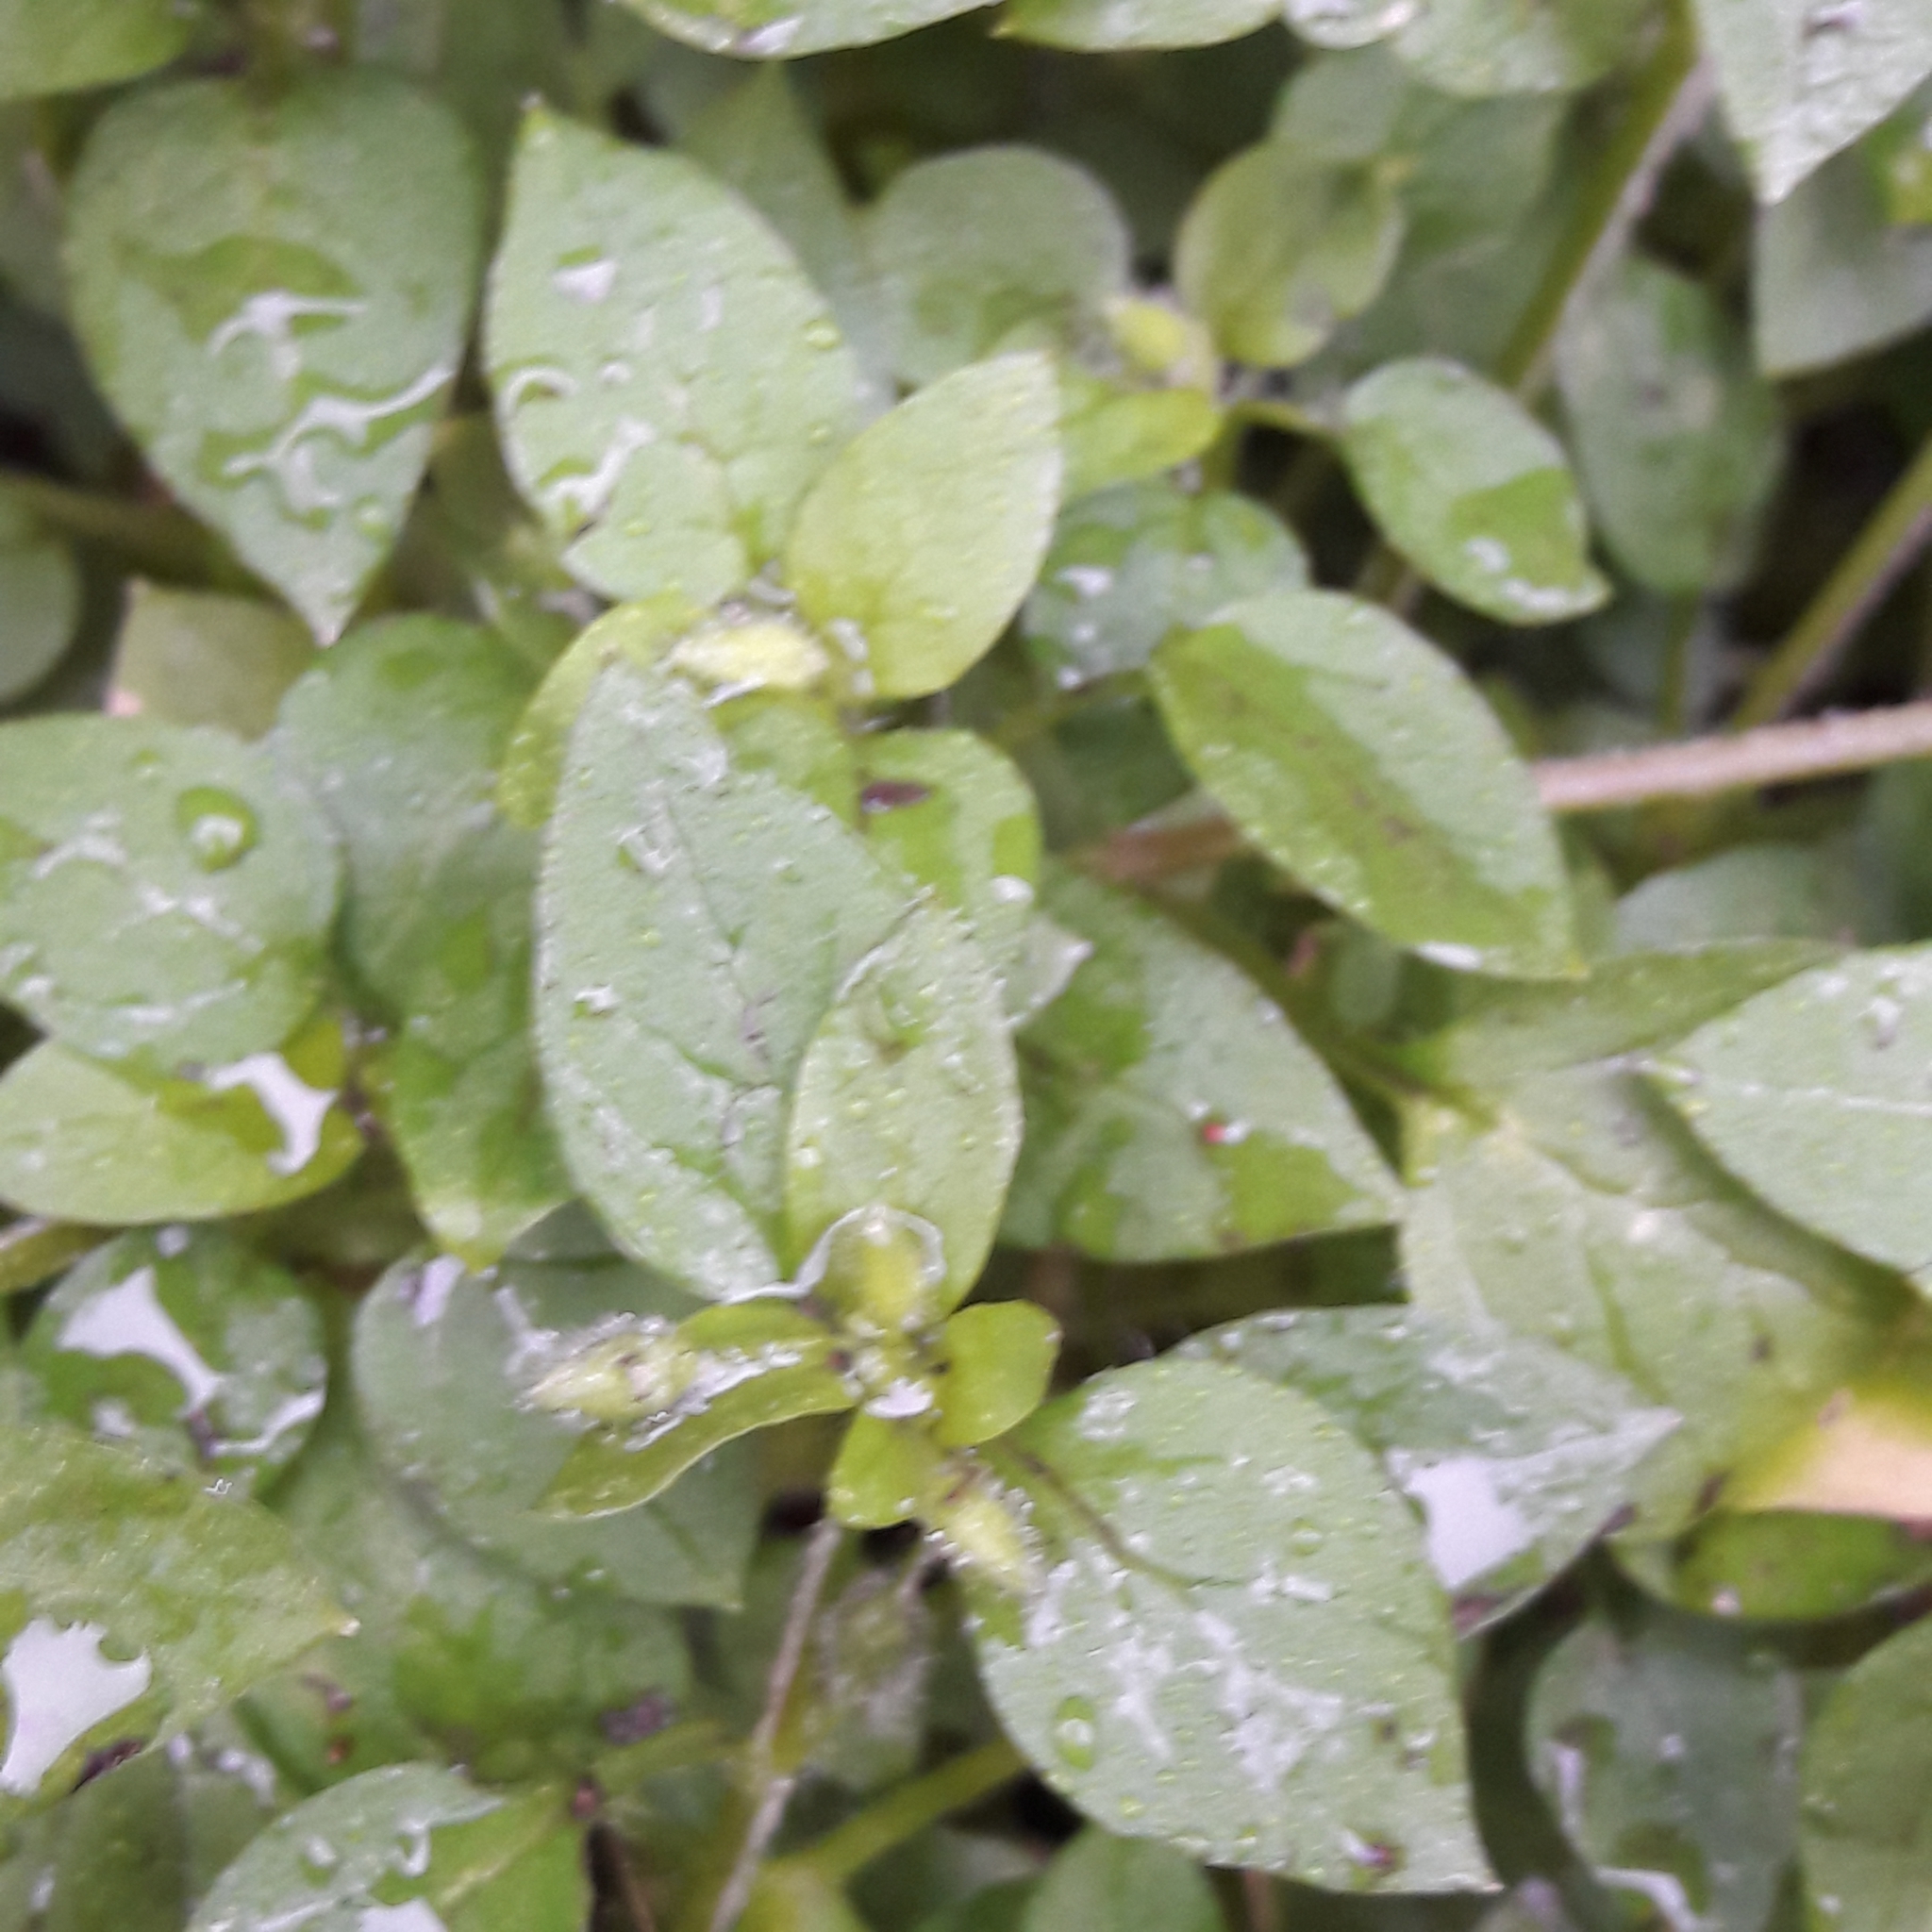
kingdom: Plantae
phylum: Tracheophyta
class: Magnoliopsida
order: Caryophyllales
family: Caryophyllaceae
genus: Stellaria
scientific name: Stellaria media
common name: Common chickweed
